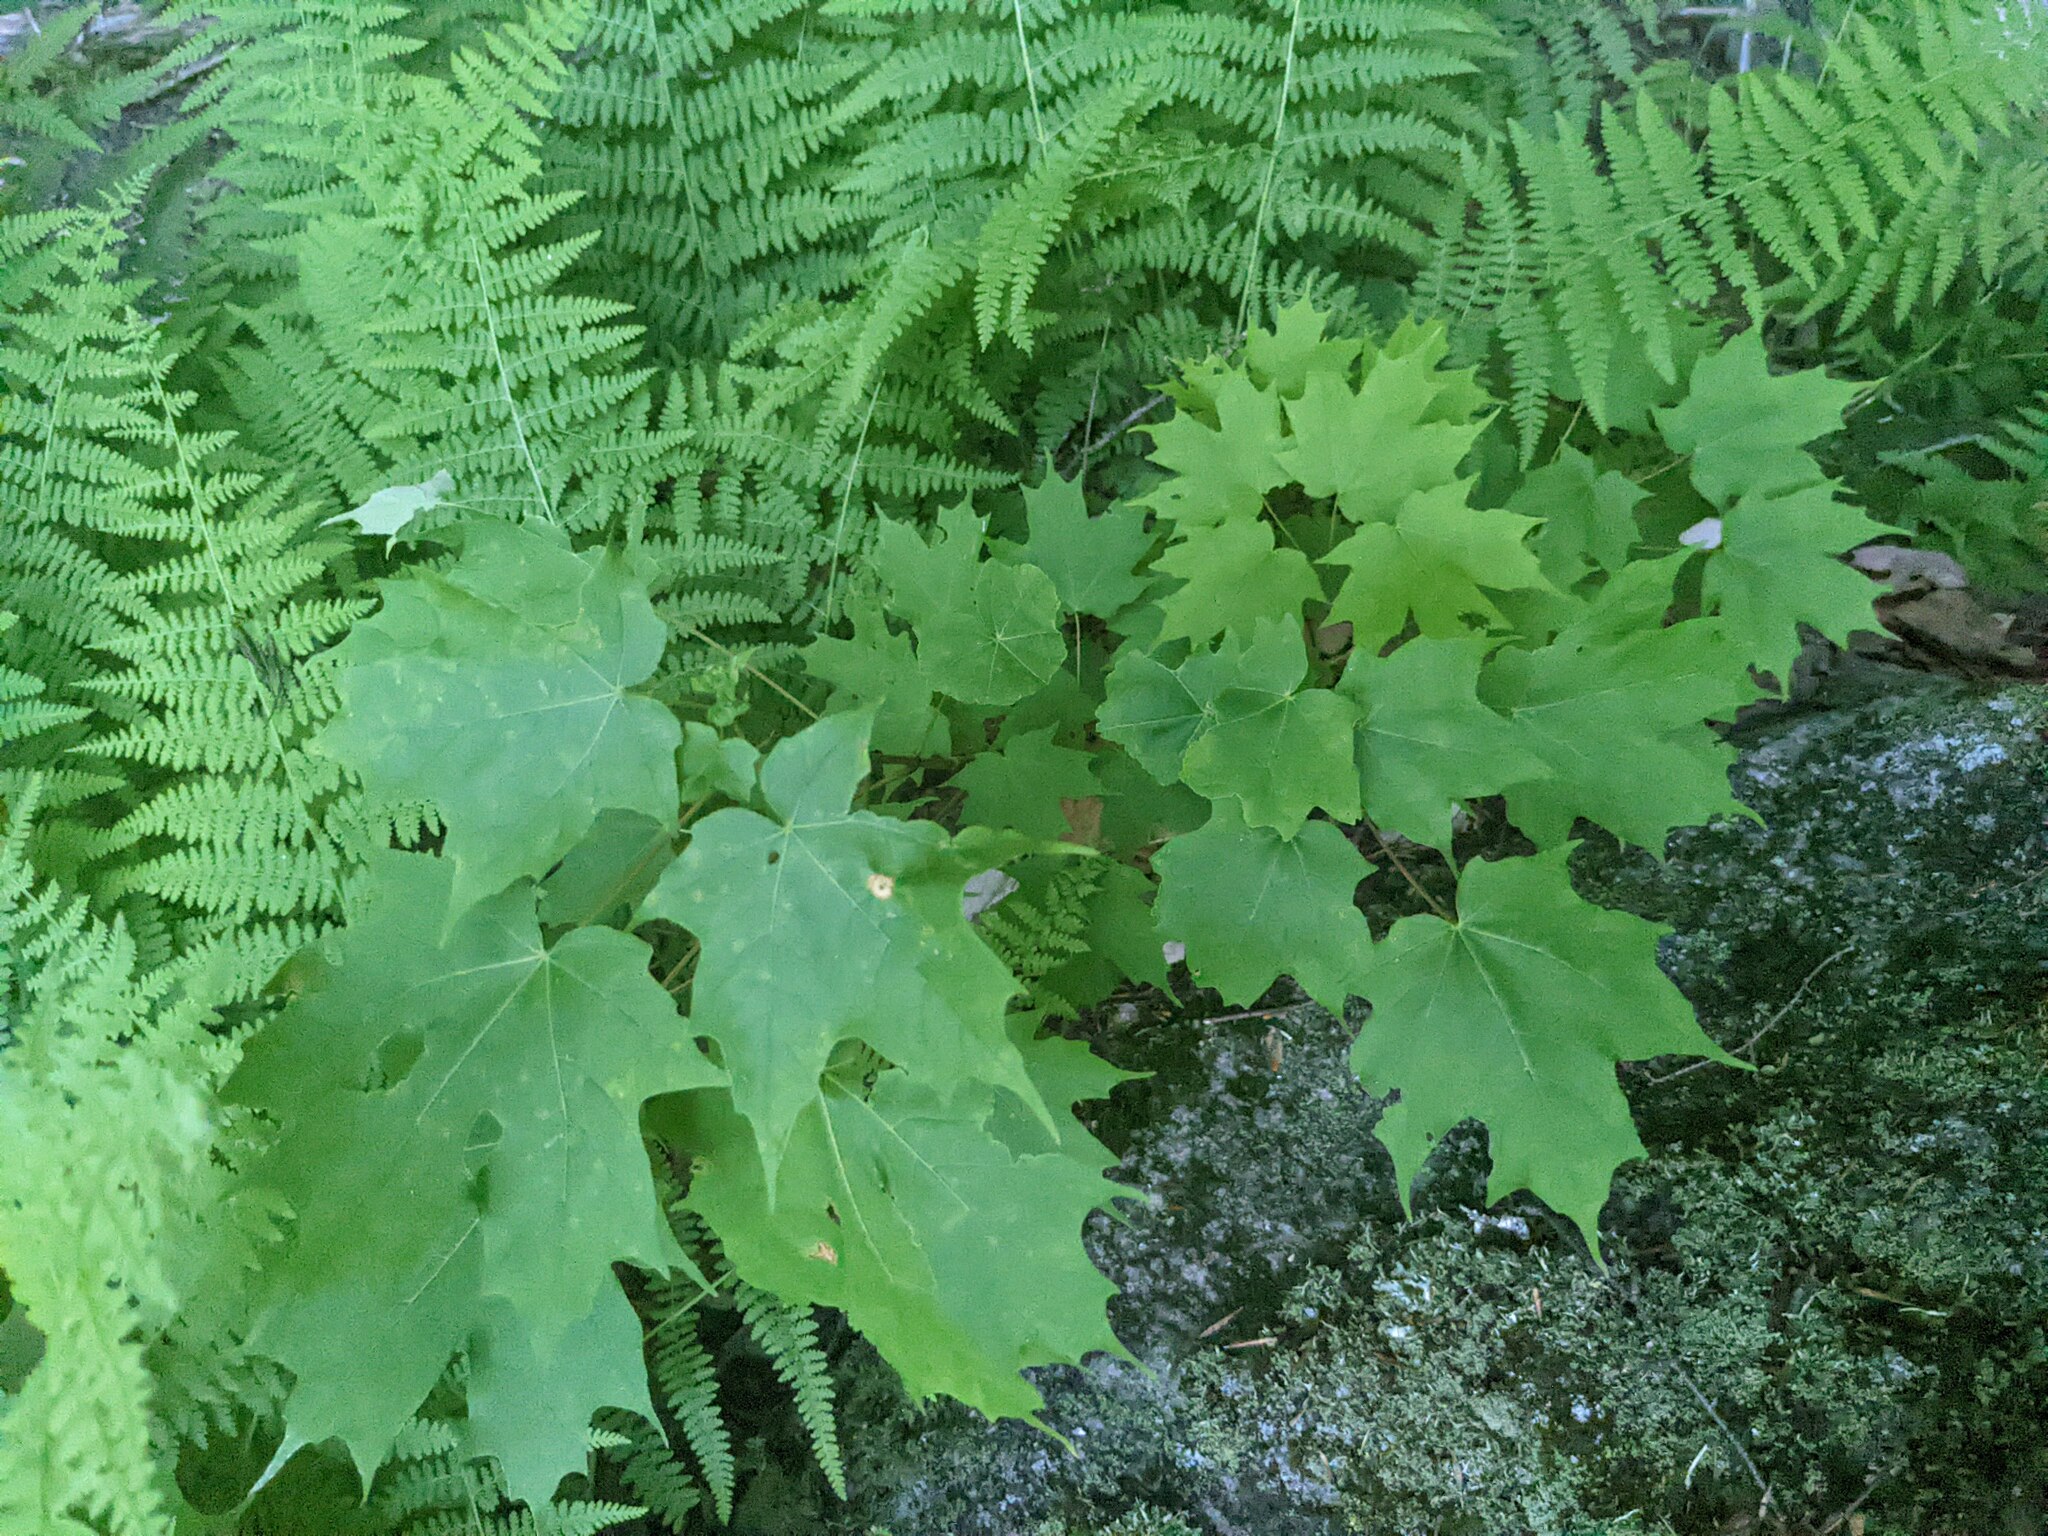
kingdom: Plantae
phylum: Tracheophyta
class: Magnoliopsida
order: Sapindales
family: Sapindaceae
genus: Acer
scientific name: Acer saccharum
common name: Sugar maple
